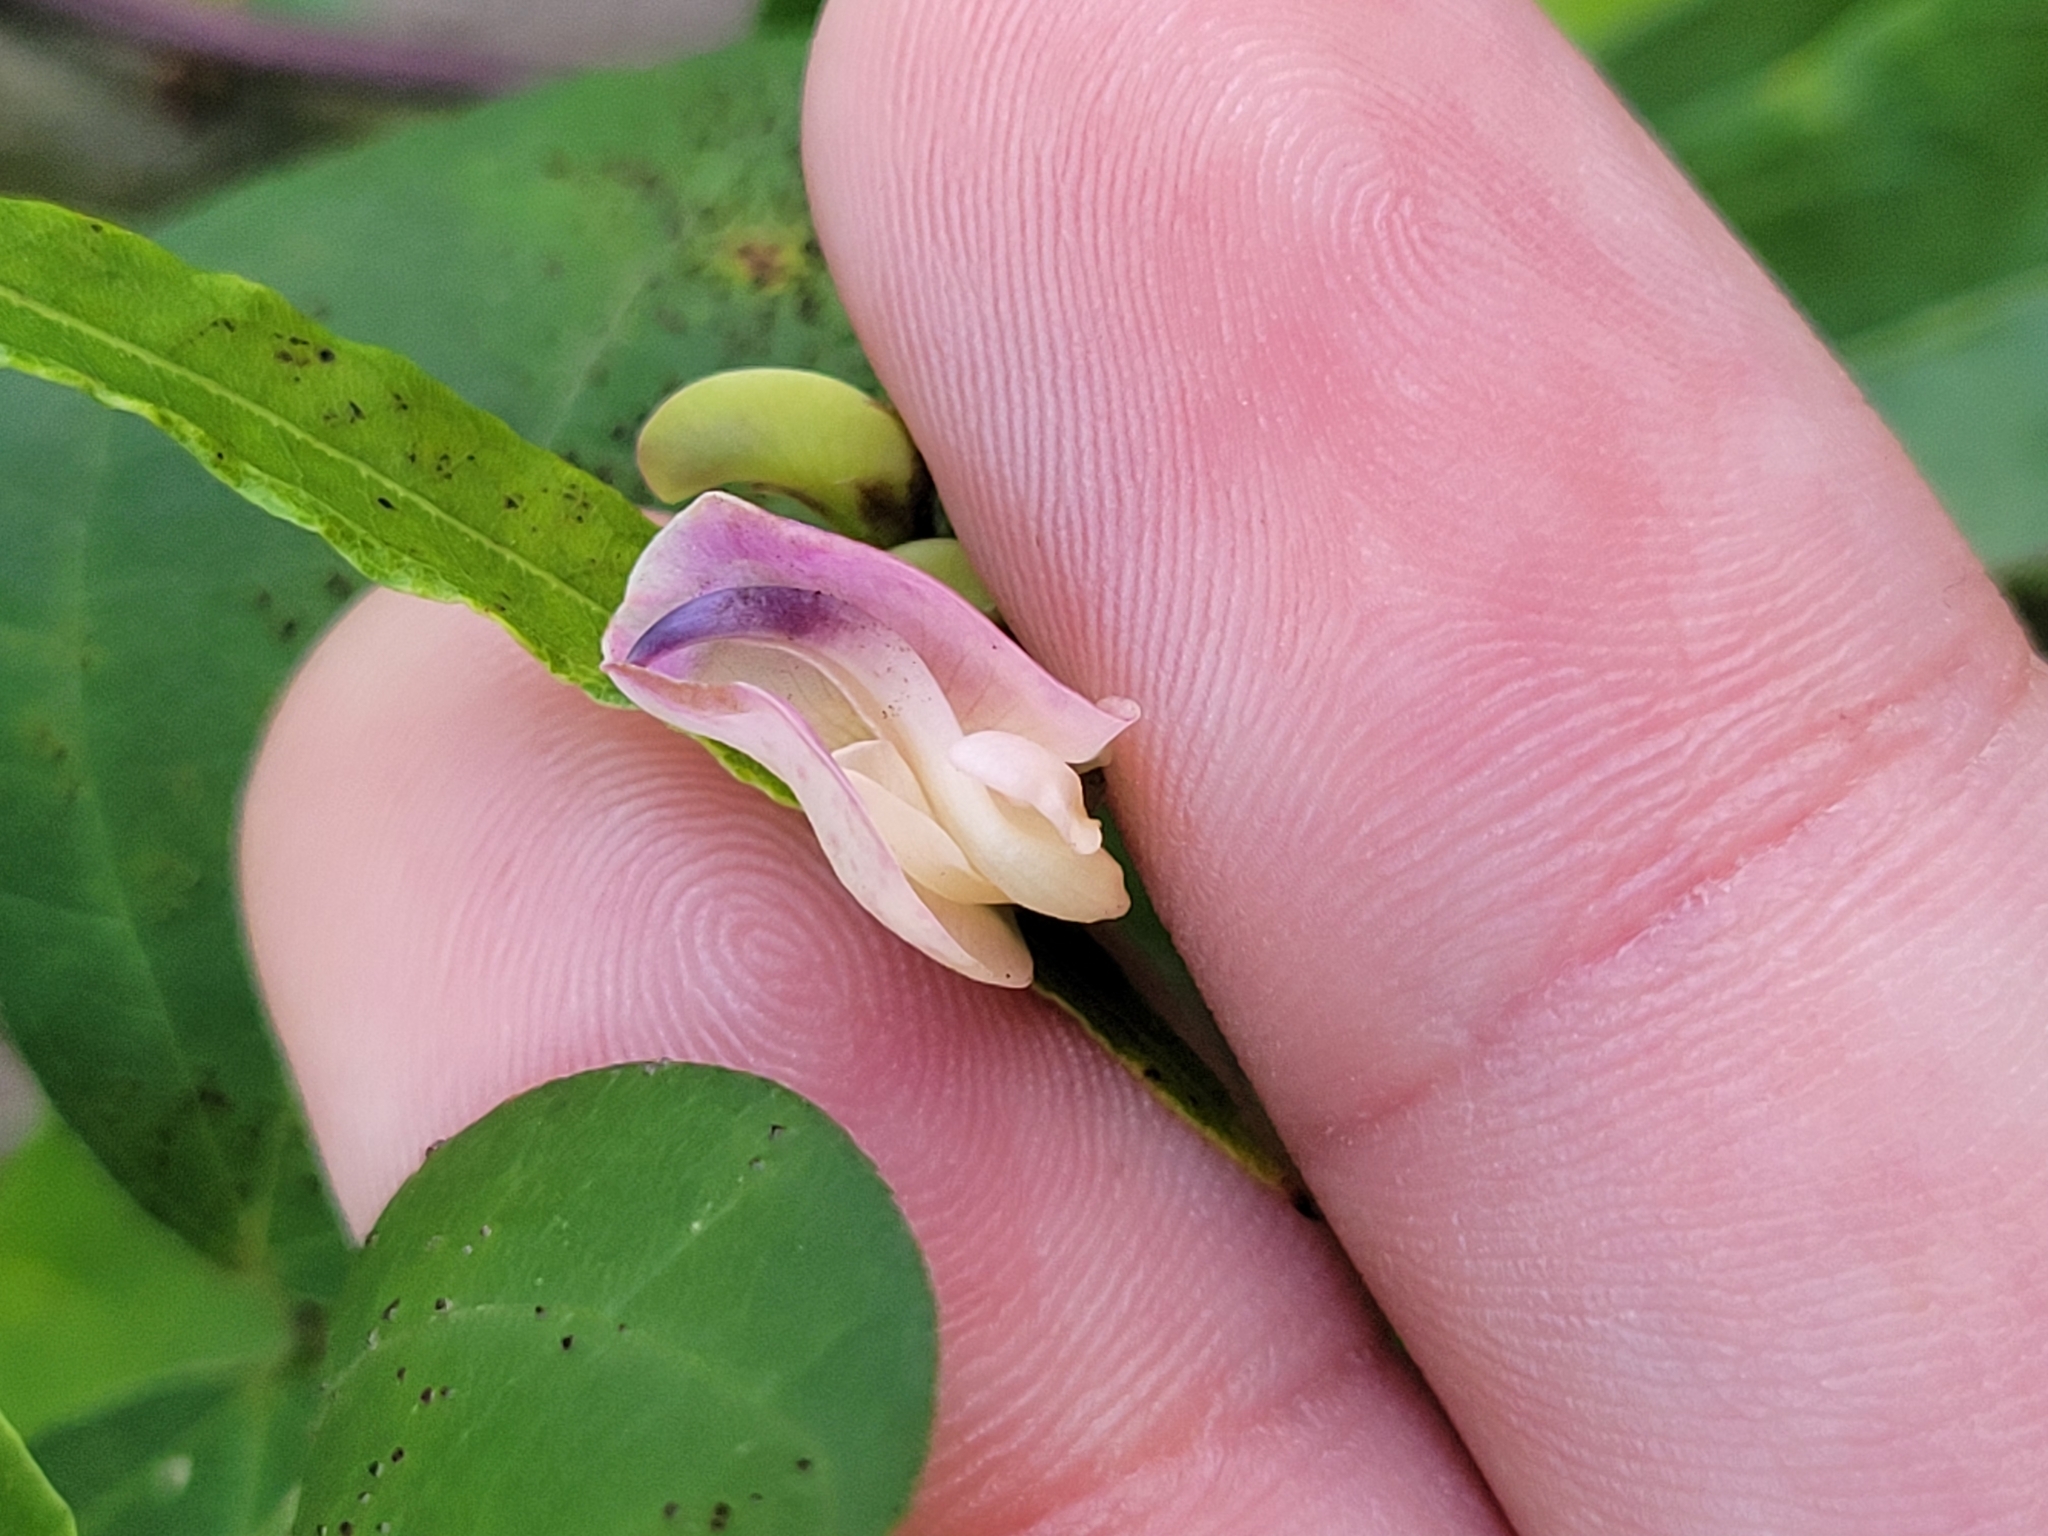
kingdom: Plantae
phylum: Tracheophyta
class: Magnoliopsida
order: Fabales
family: Fabaceae
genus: Strophostyles
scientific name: Strophostyles helvola
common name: Trailing wild bean
